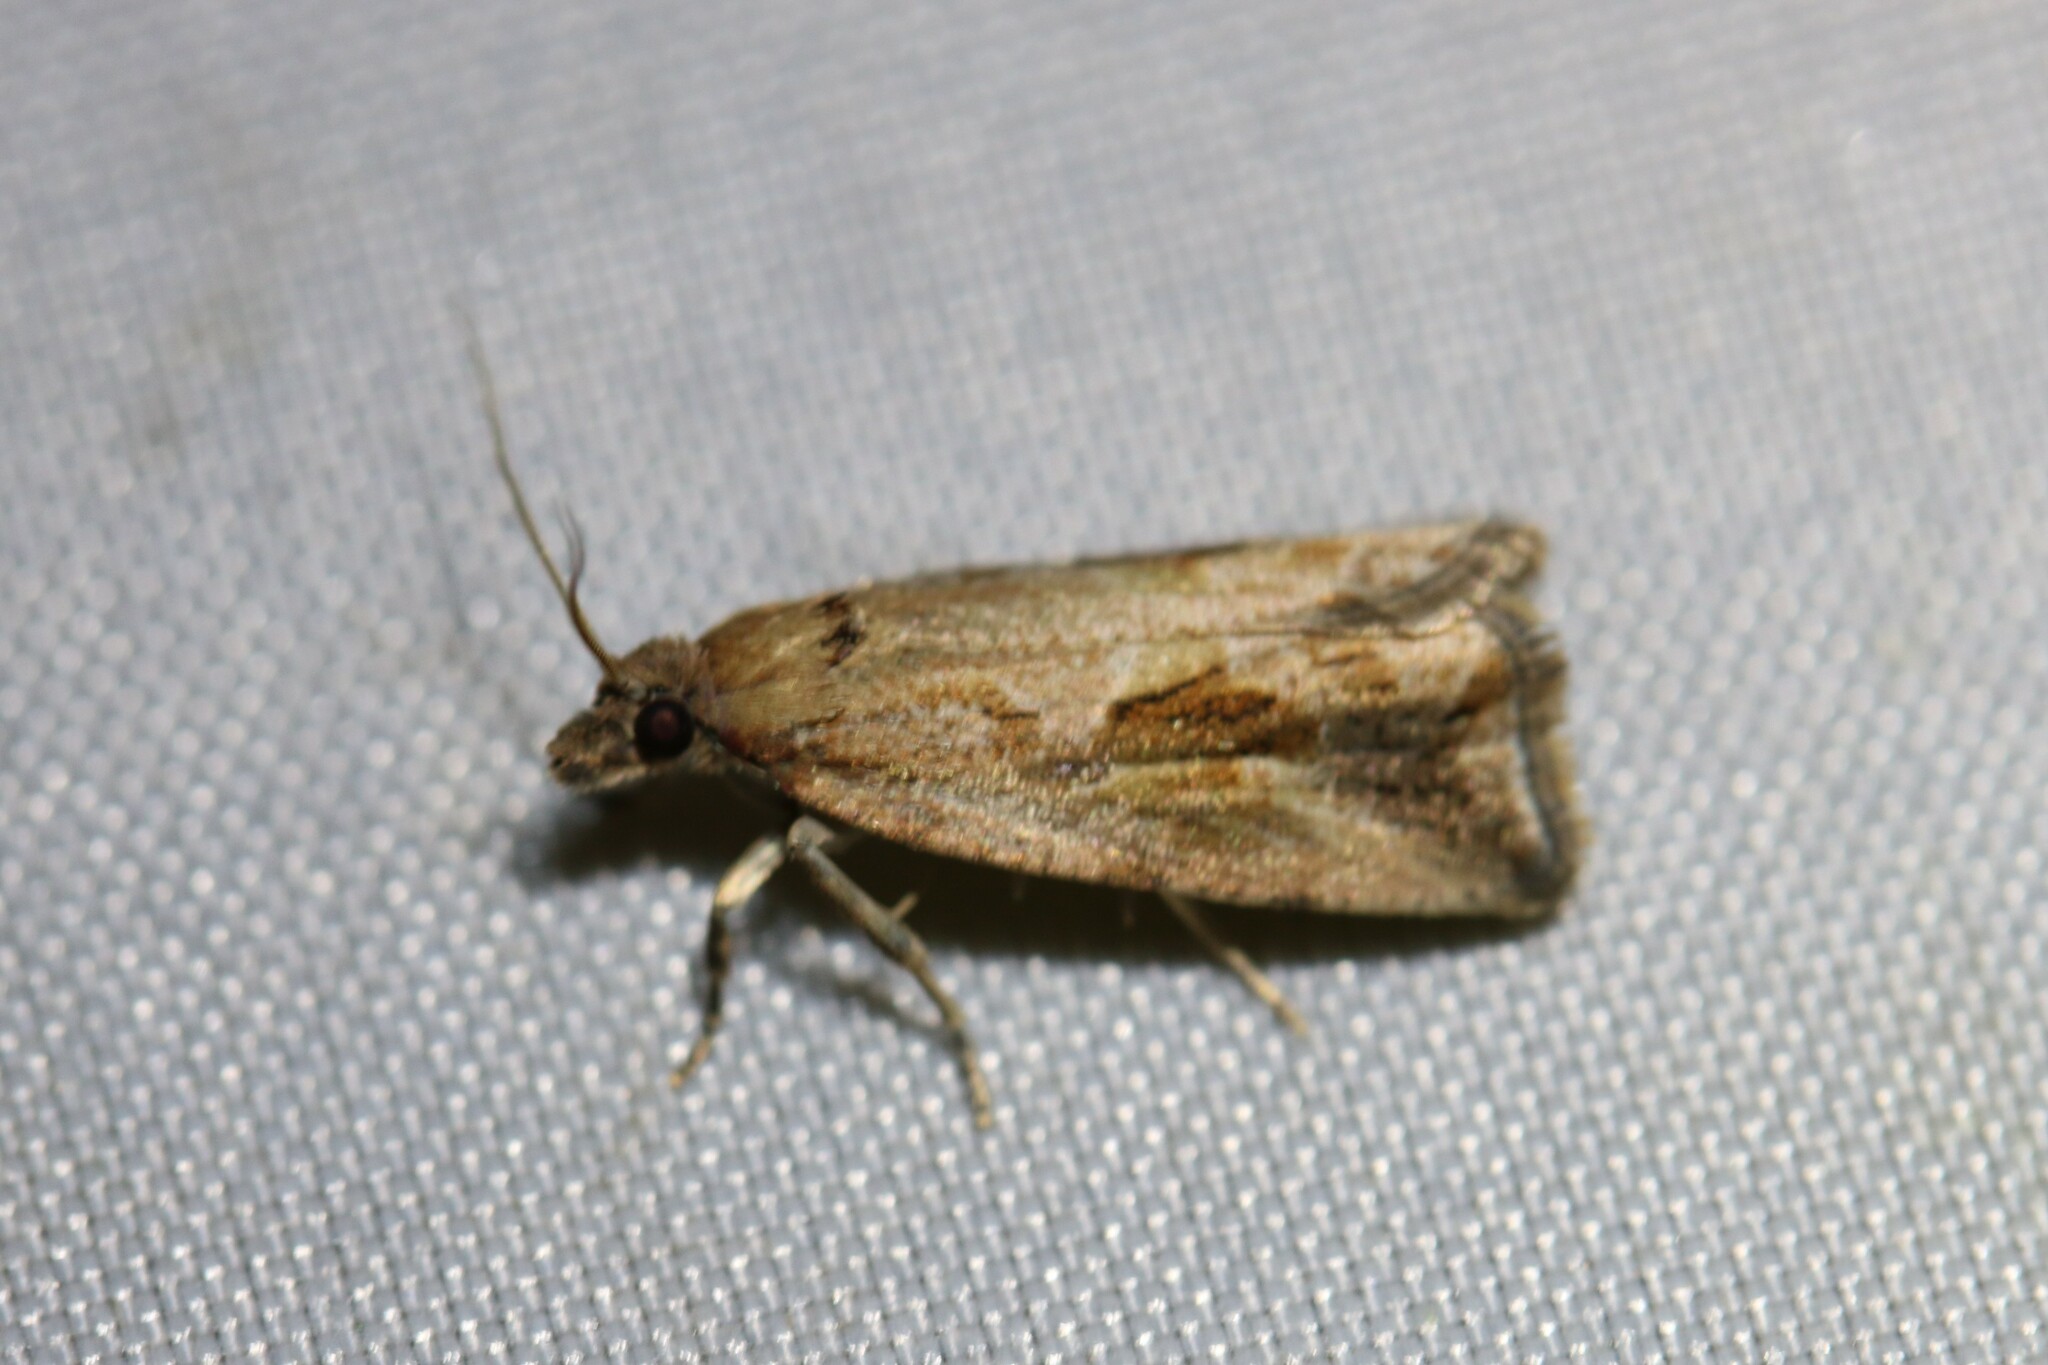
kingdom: Animalia
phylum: Arthropoda
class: Insecta
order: Lepidoptera
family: Tortricidae
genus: Endothenia
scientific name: Endothenia quadrimaculana
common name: Tortricid moth
